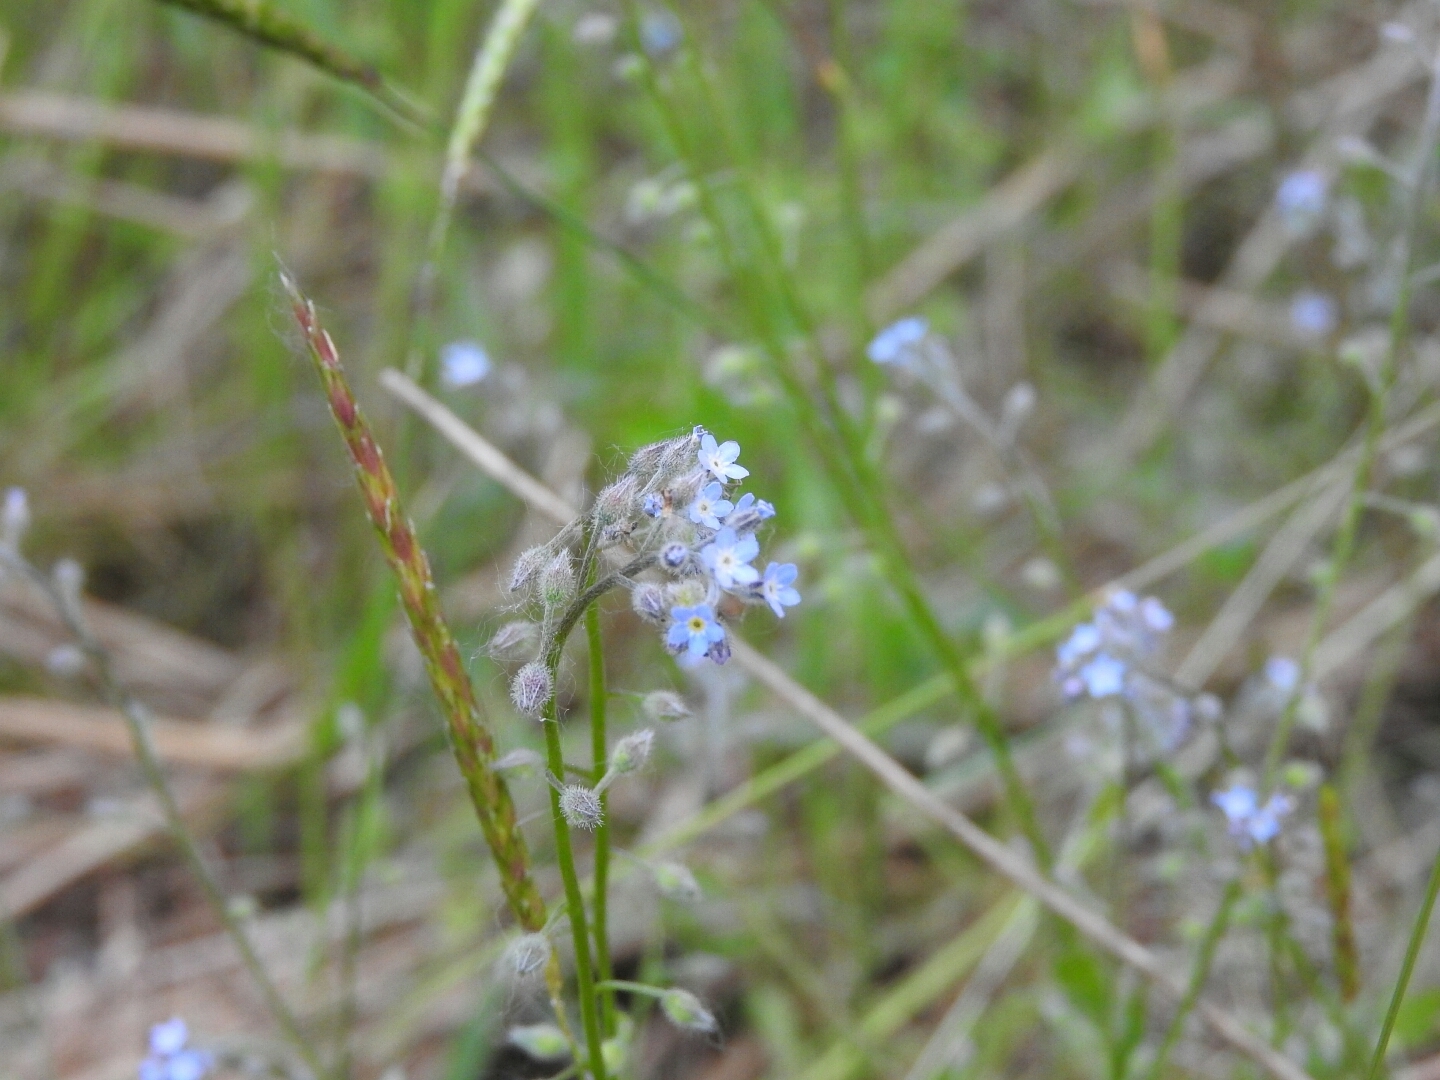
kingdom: Plantae
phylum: Tracheophyta
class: Magnoliopsida
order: Boraginales
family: Boraginaceae
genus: Myosotis
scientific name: Myosotis arvensis
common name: Field forget-me-not
